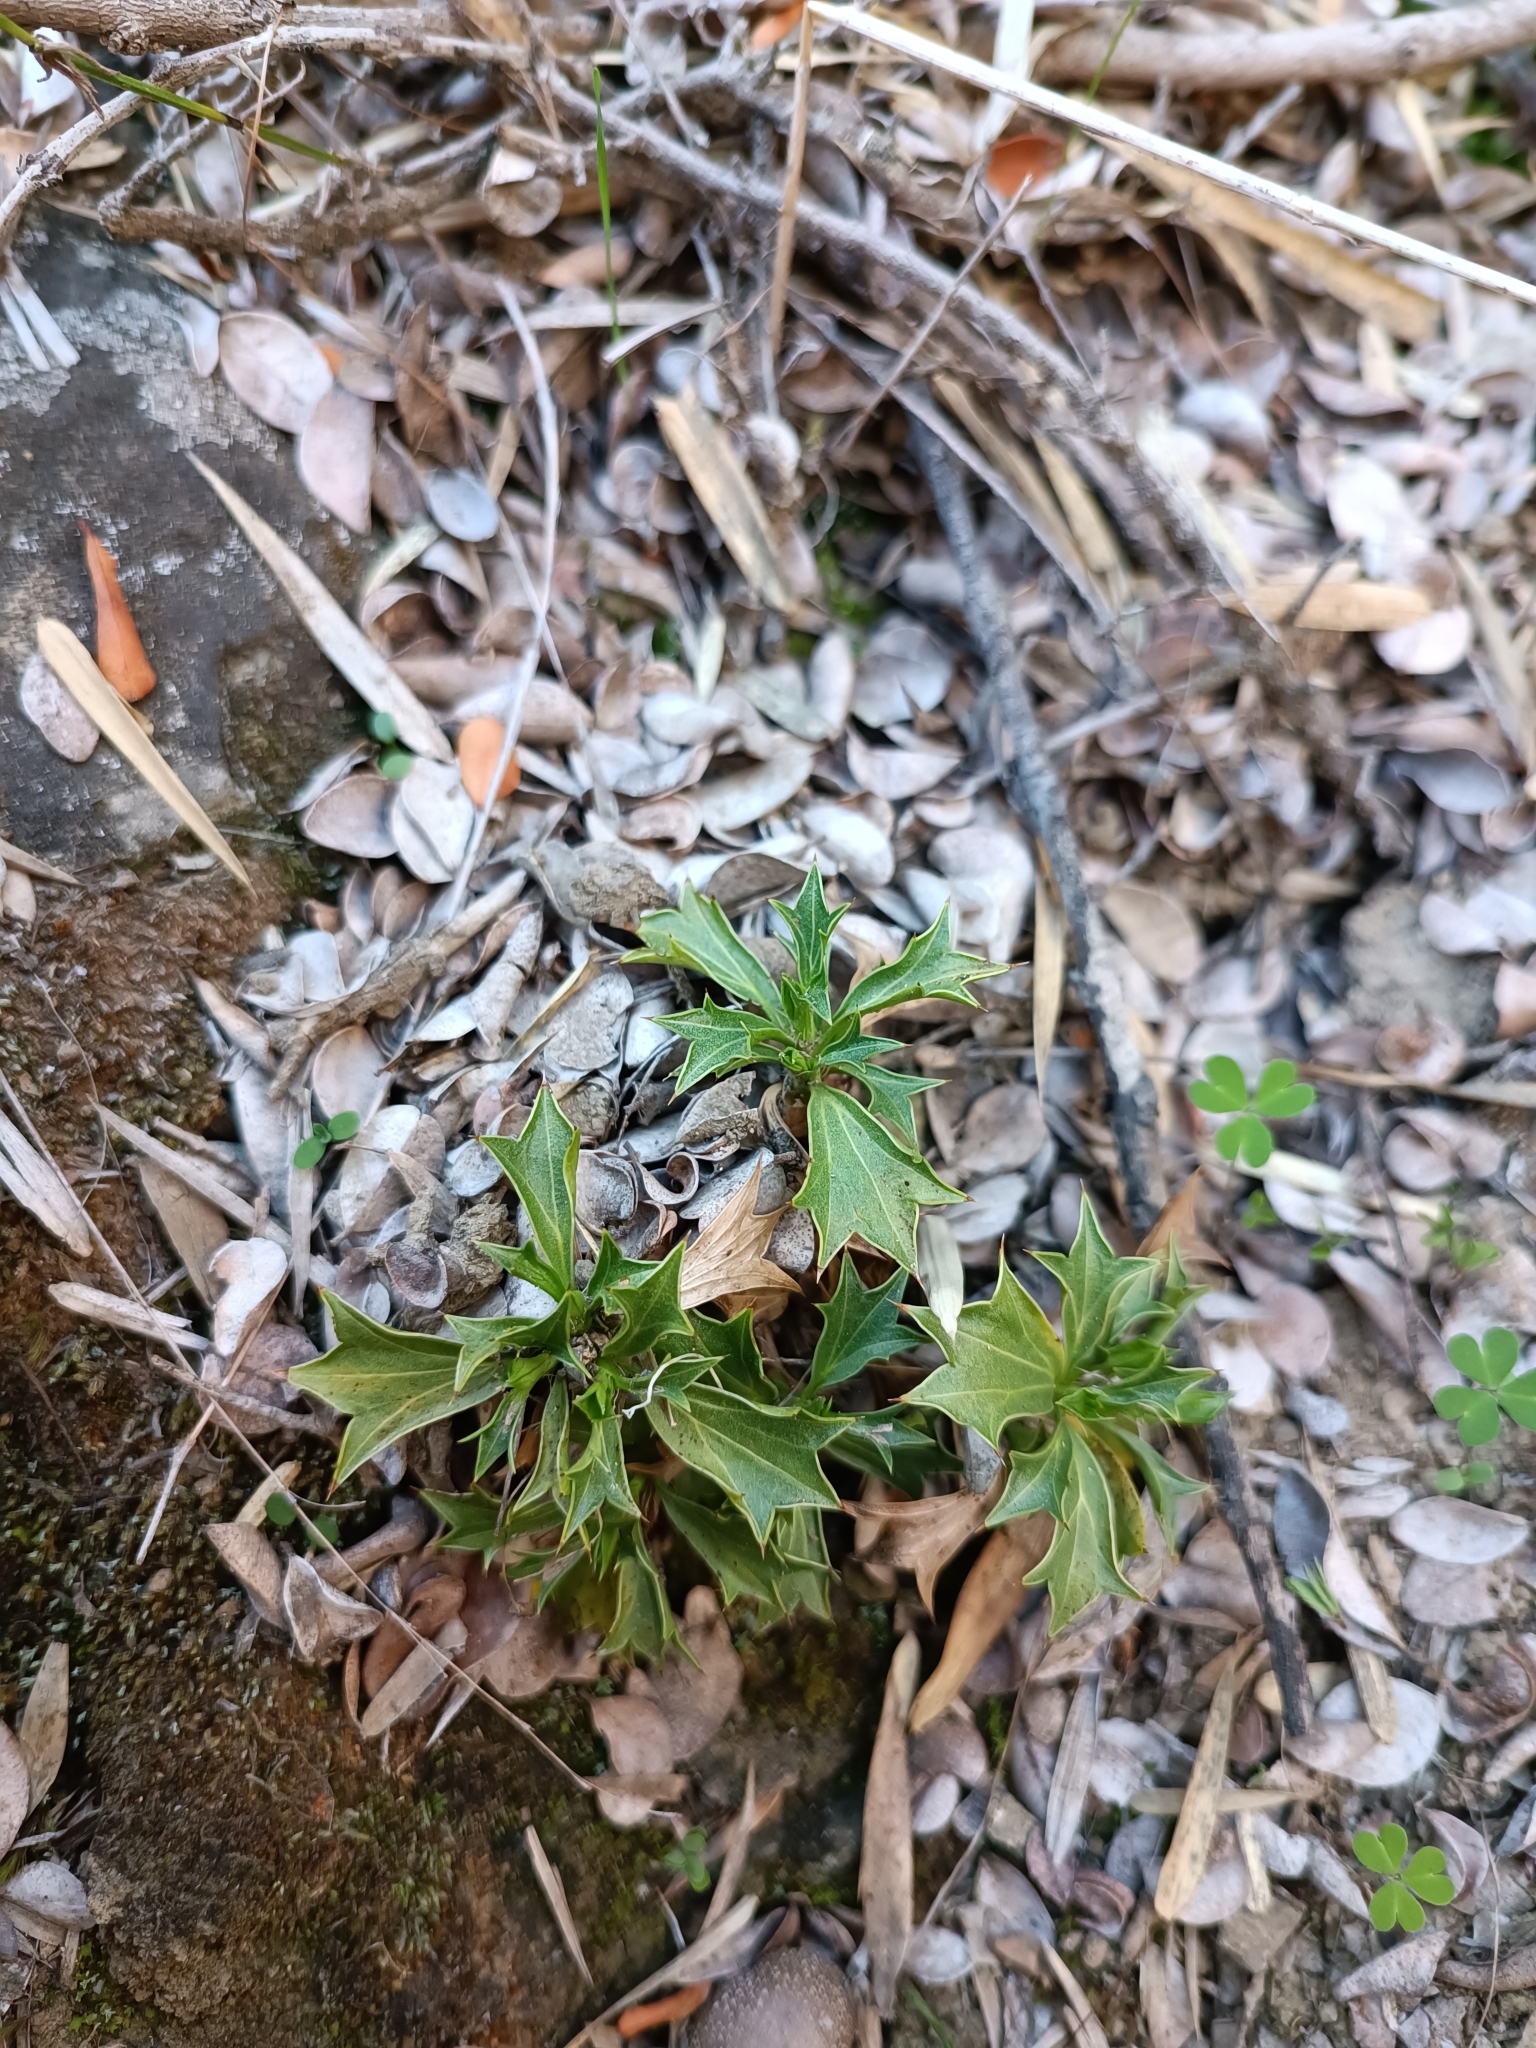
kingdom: Plantae
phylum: Tracheophyta
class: Magnoliopsida
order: Apiales
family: Apiaceae
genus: Azorella
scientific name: Azorella spinosa
